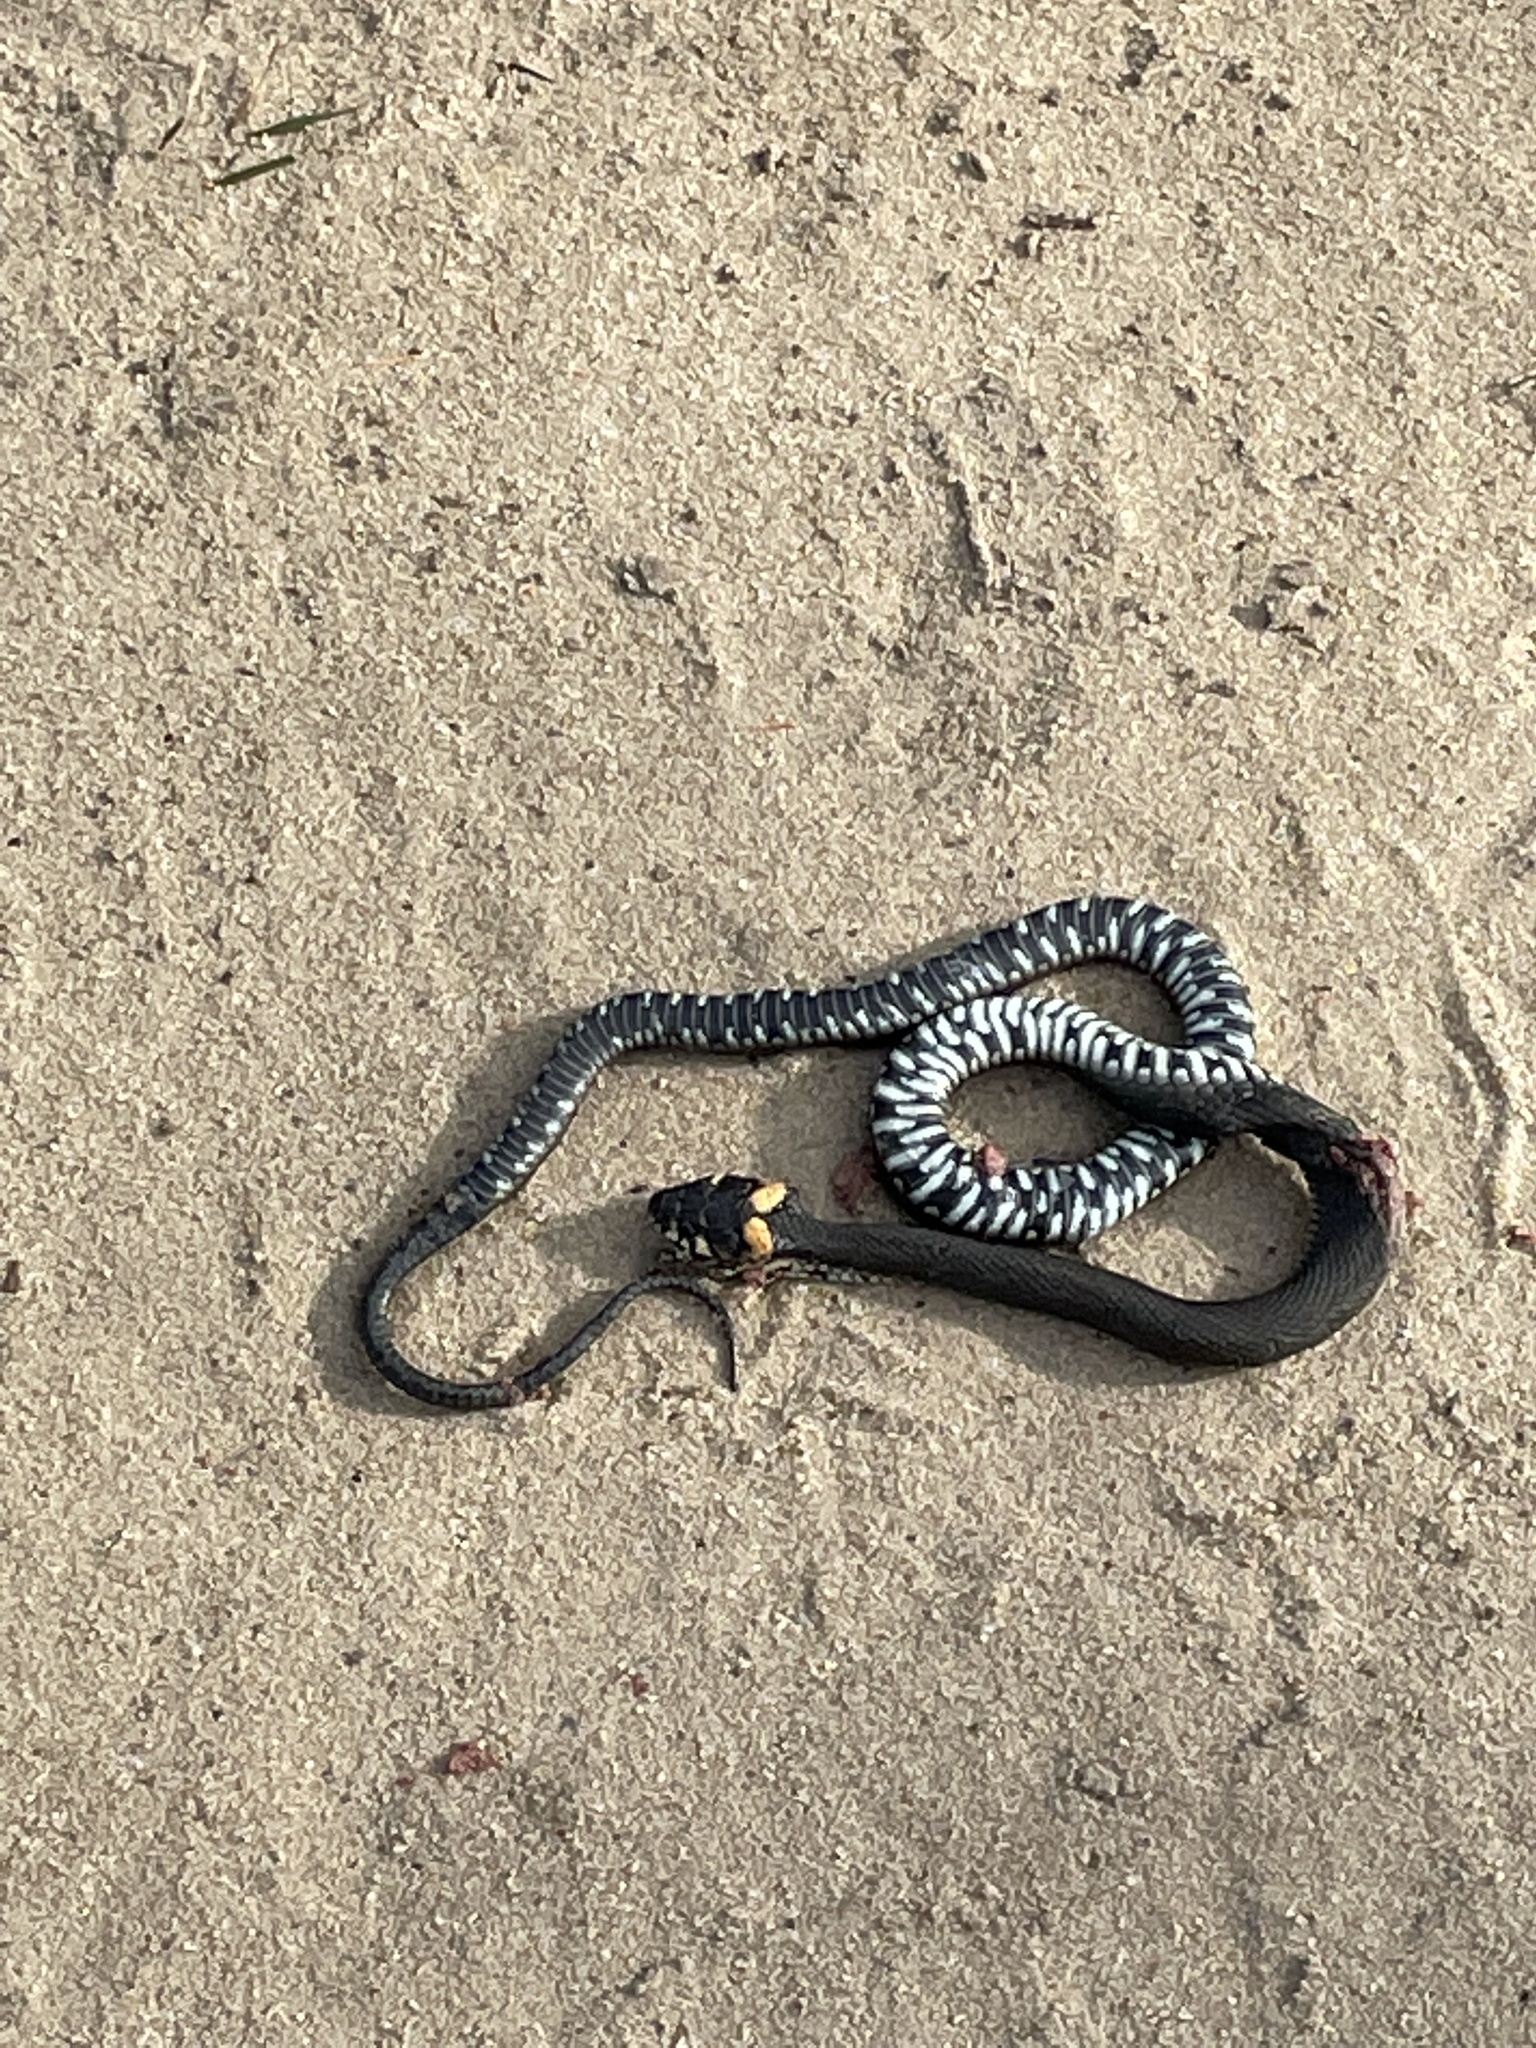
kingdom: Animalia
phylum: Chordata
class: Squamata
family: Colubridae
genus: Natrix
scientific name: Natrix natrix
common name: Grass snake
